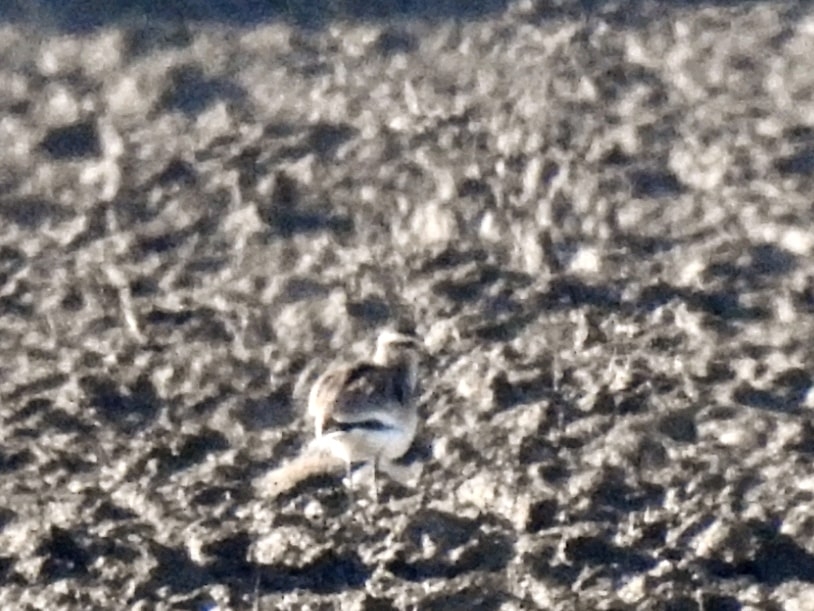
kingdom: Animalia
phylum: Chordata
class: Aves
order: Charadriiformes
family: Charadriidae
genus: Vanellus
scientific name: Vanellus gregarius
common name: Sociable lapwing
